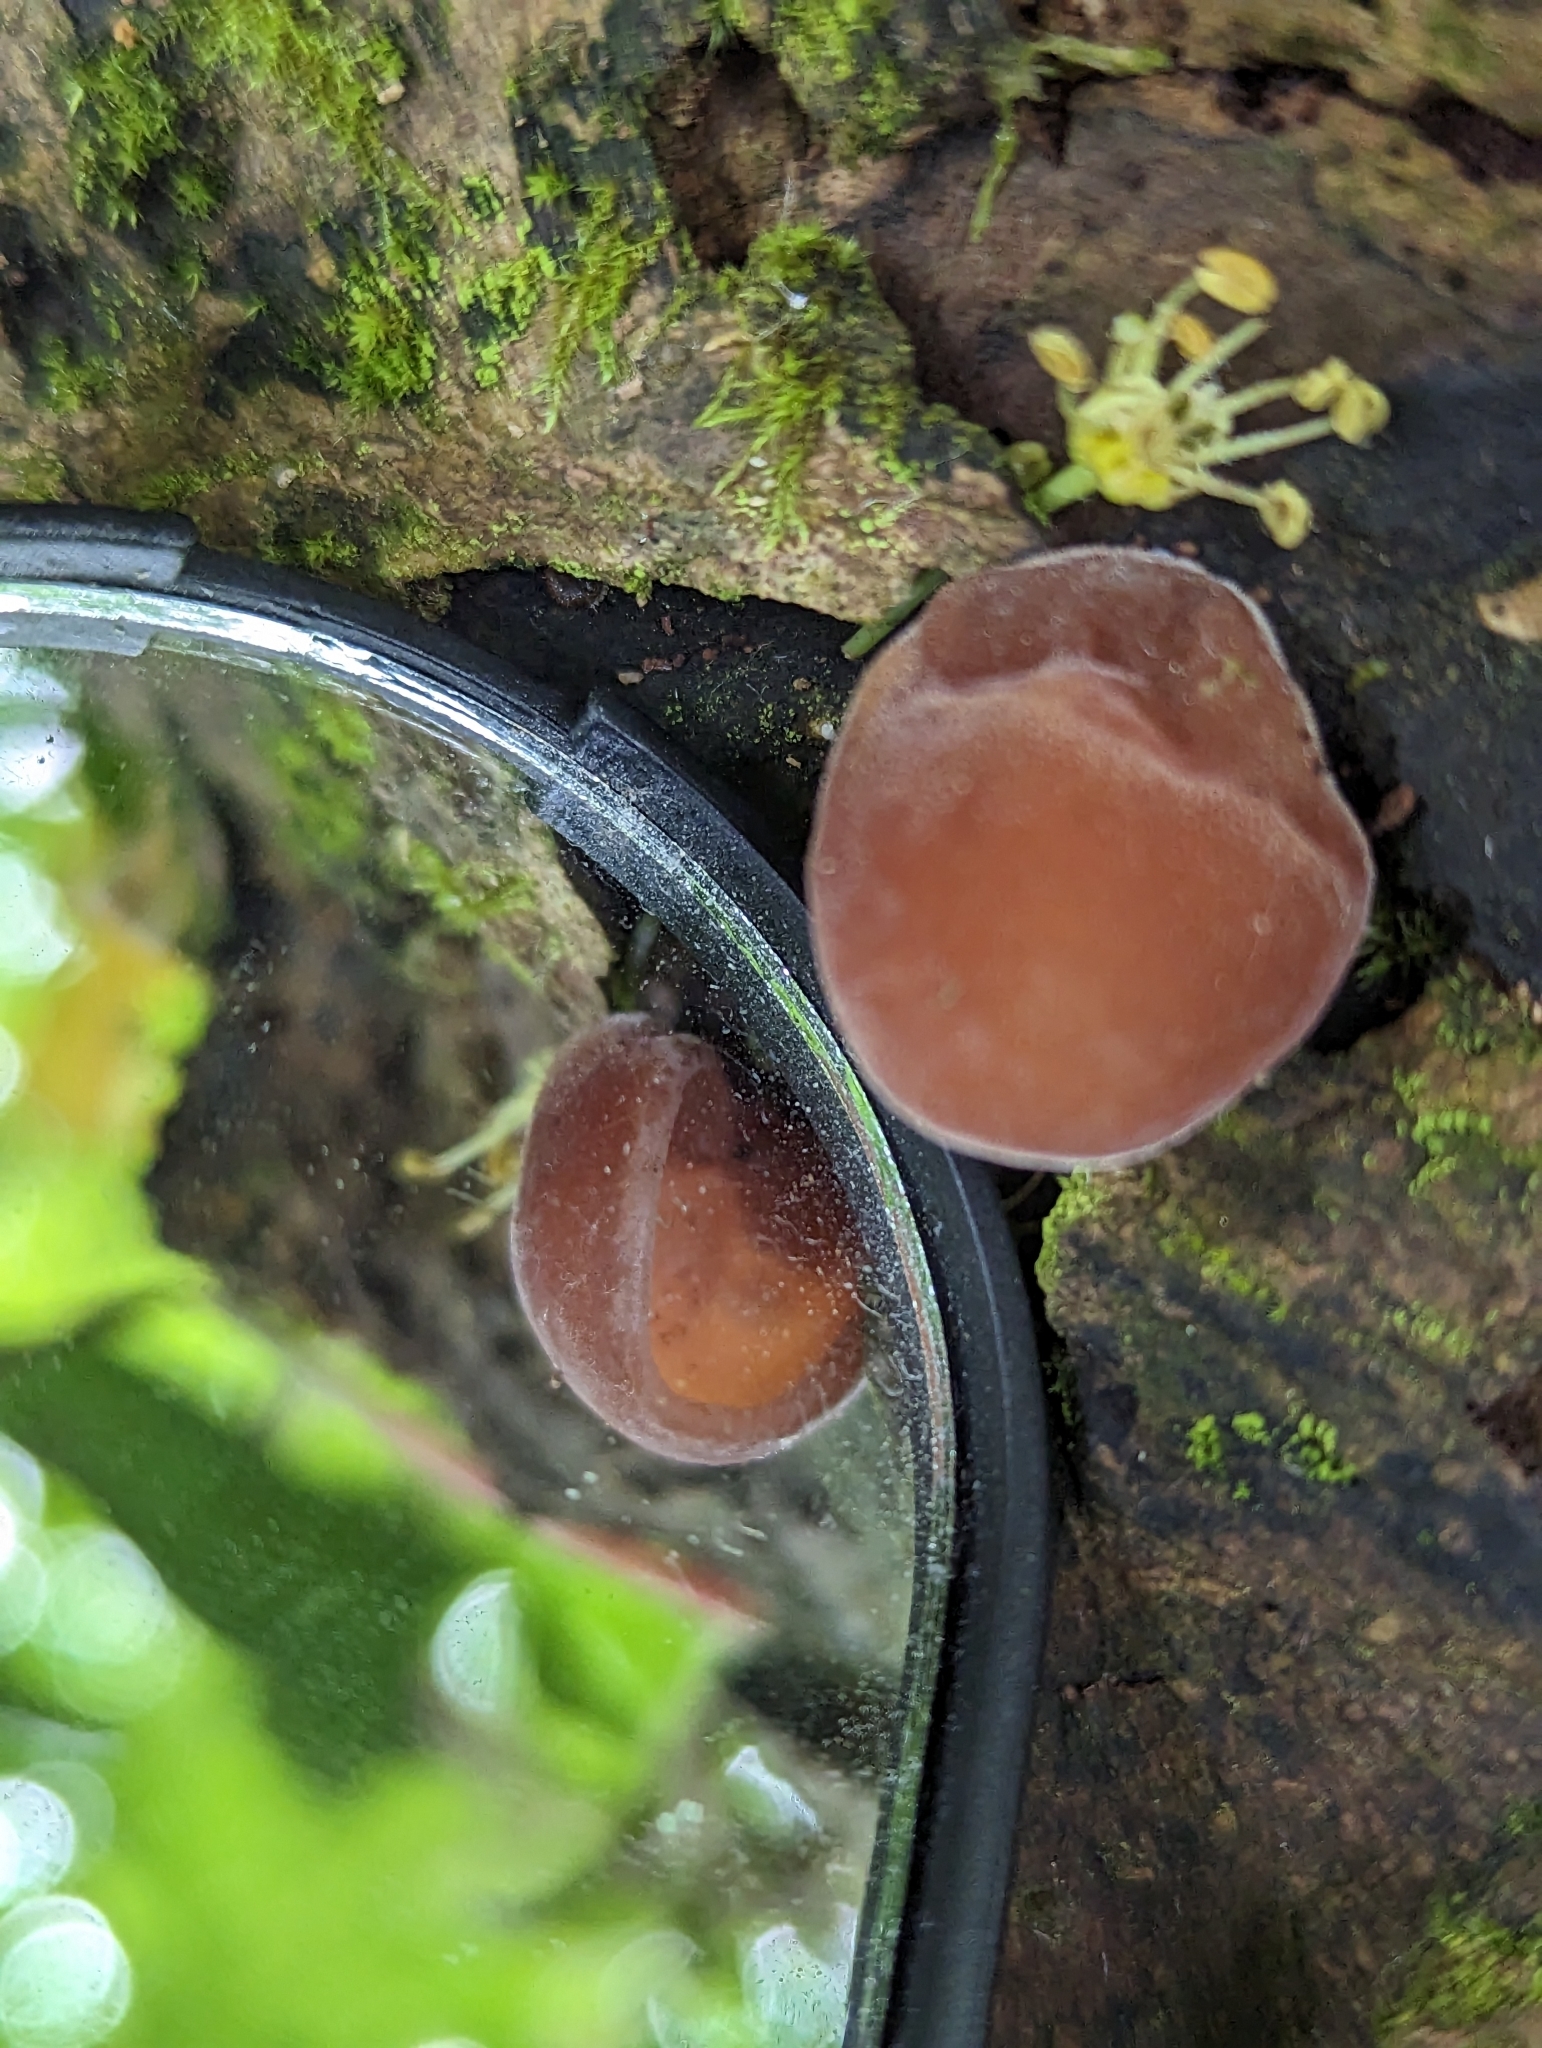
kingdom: Fungi
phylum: Basidiomycota
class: Agaricomycetes
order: Auriculariales
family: Auriculariaceae
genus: Auricularia
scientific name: Auricularia auricula-judae
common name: Jelly ear
